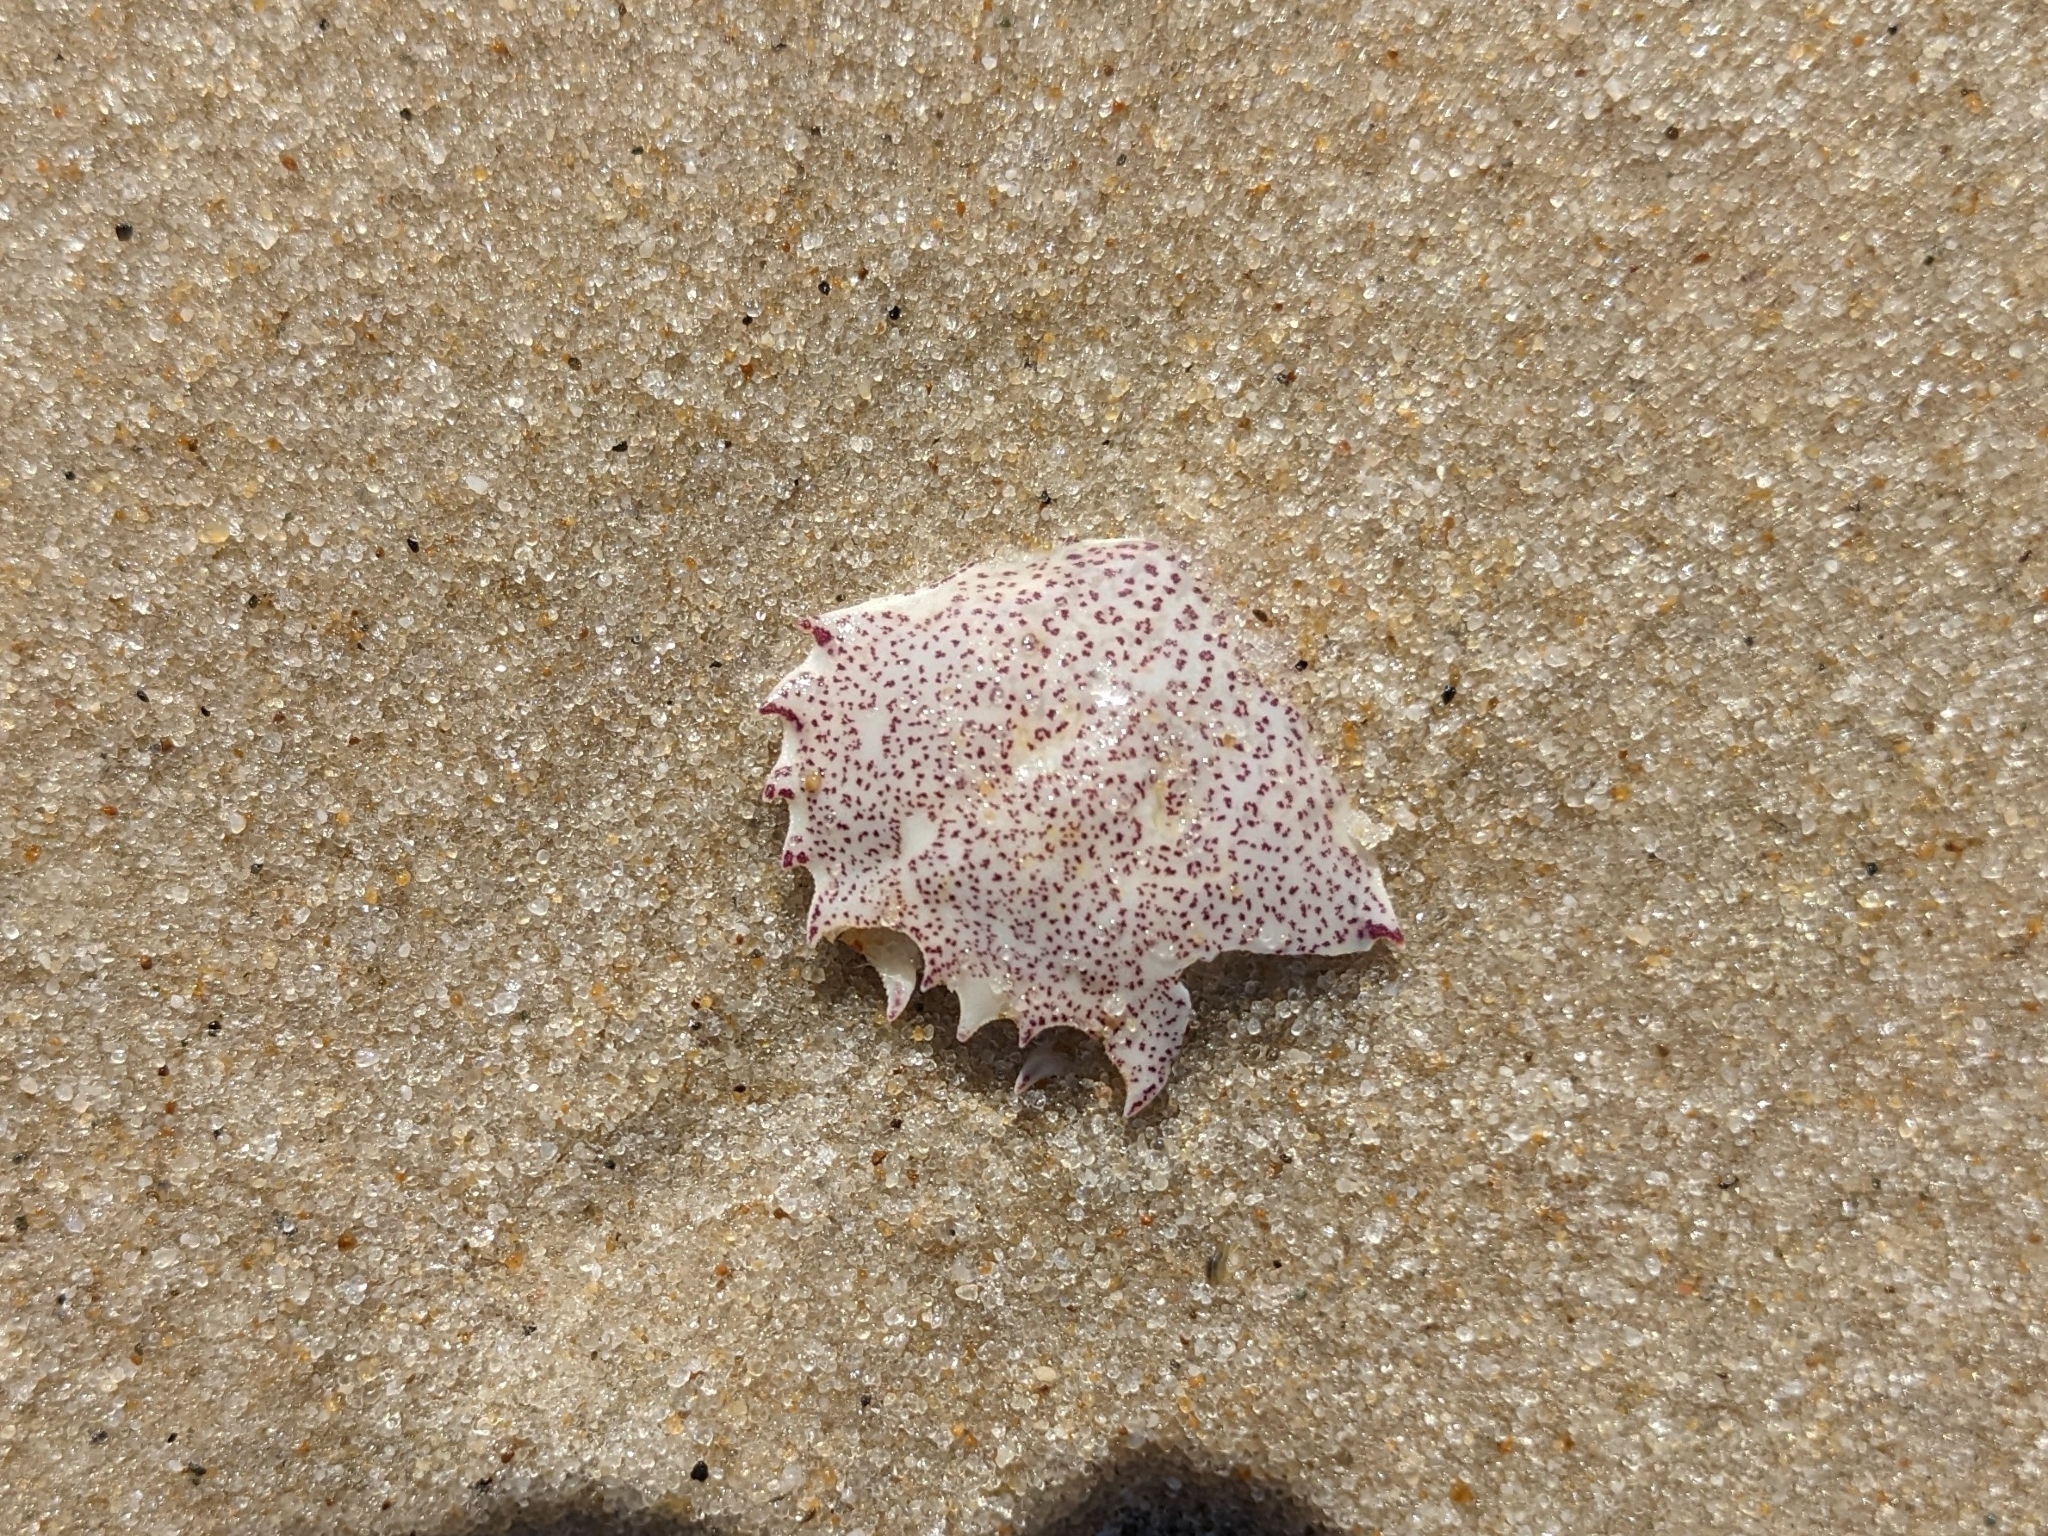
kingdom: Animalia
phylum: Arthropoda
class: Malacostraca
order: Decapoda
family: Ovalipidae
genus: Ovalipes
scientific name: Ovalipes ocellatus
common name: Lady crab
